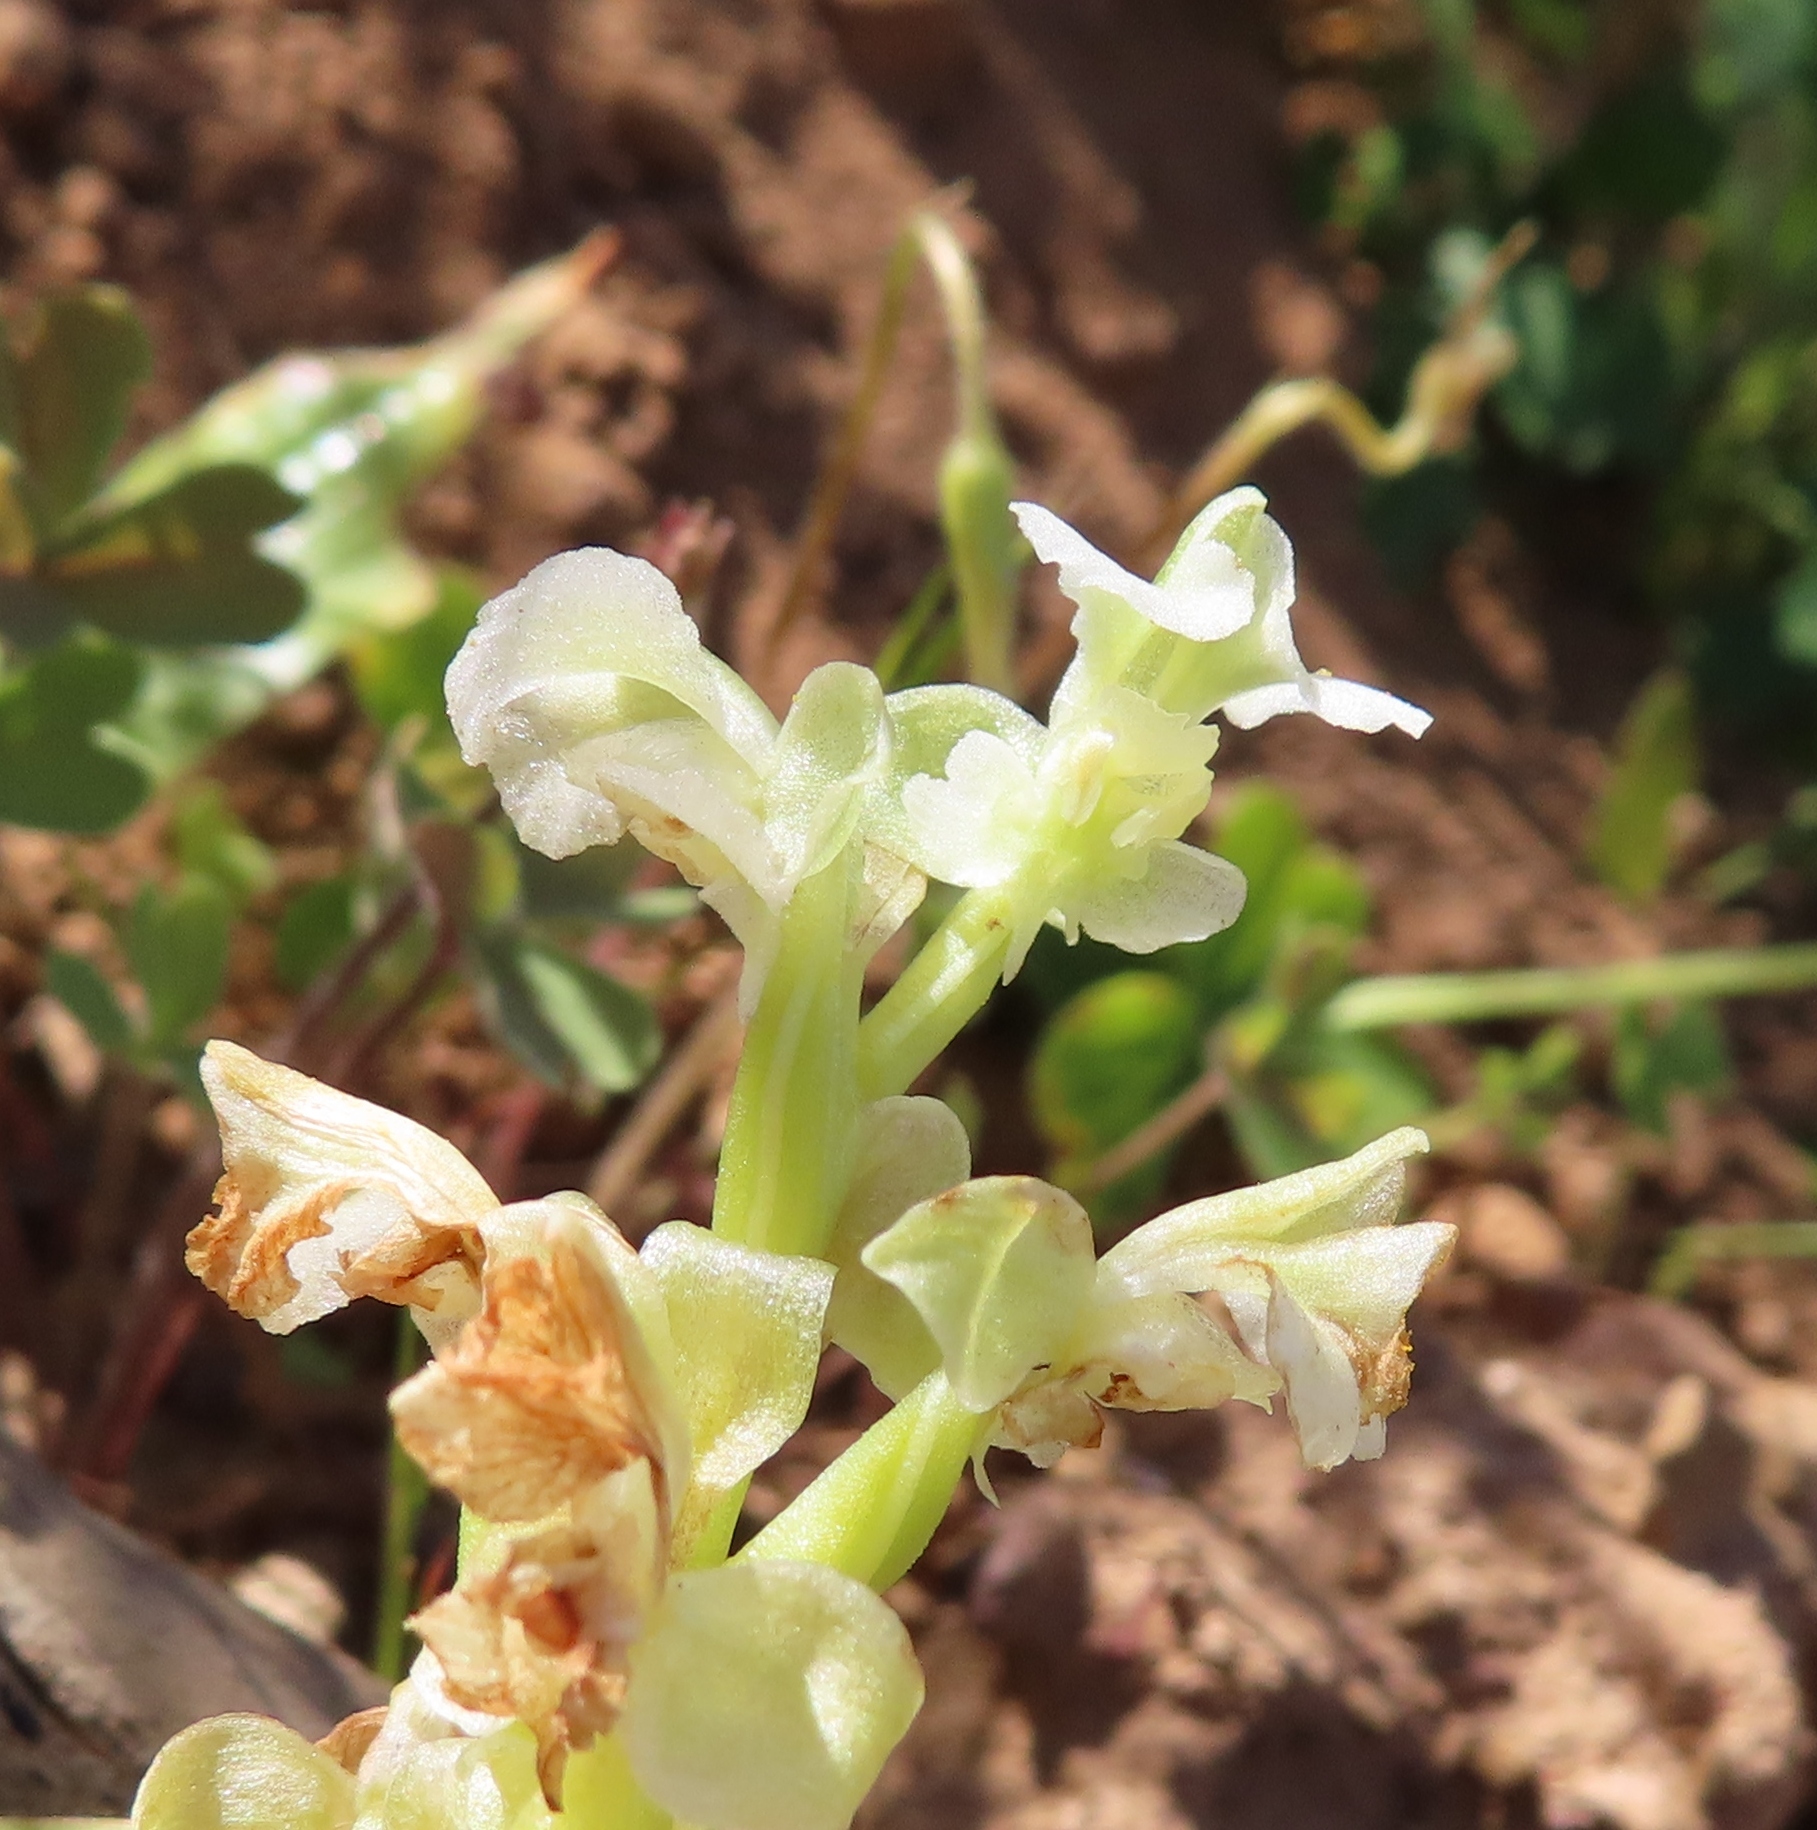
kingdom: Plantae
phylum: Tracheophyta
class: Liliopsida
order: Asparagales
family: Orchidaceae
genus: Pterygodium
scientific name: Pterygodium schelpei
